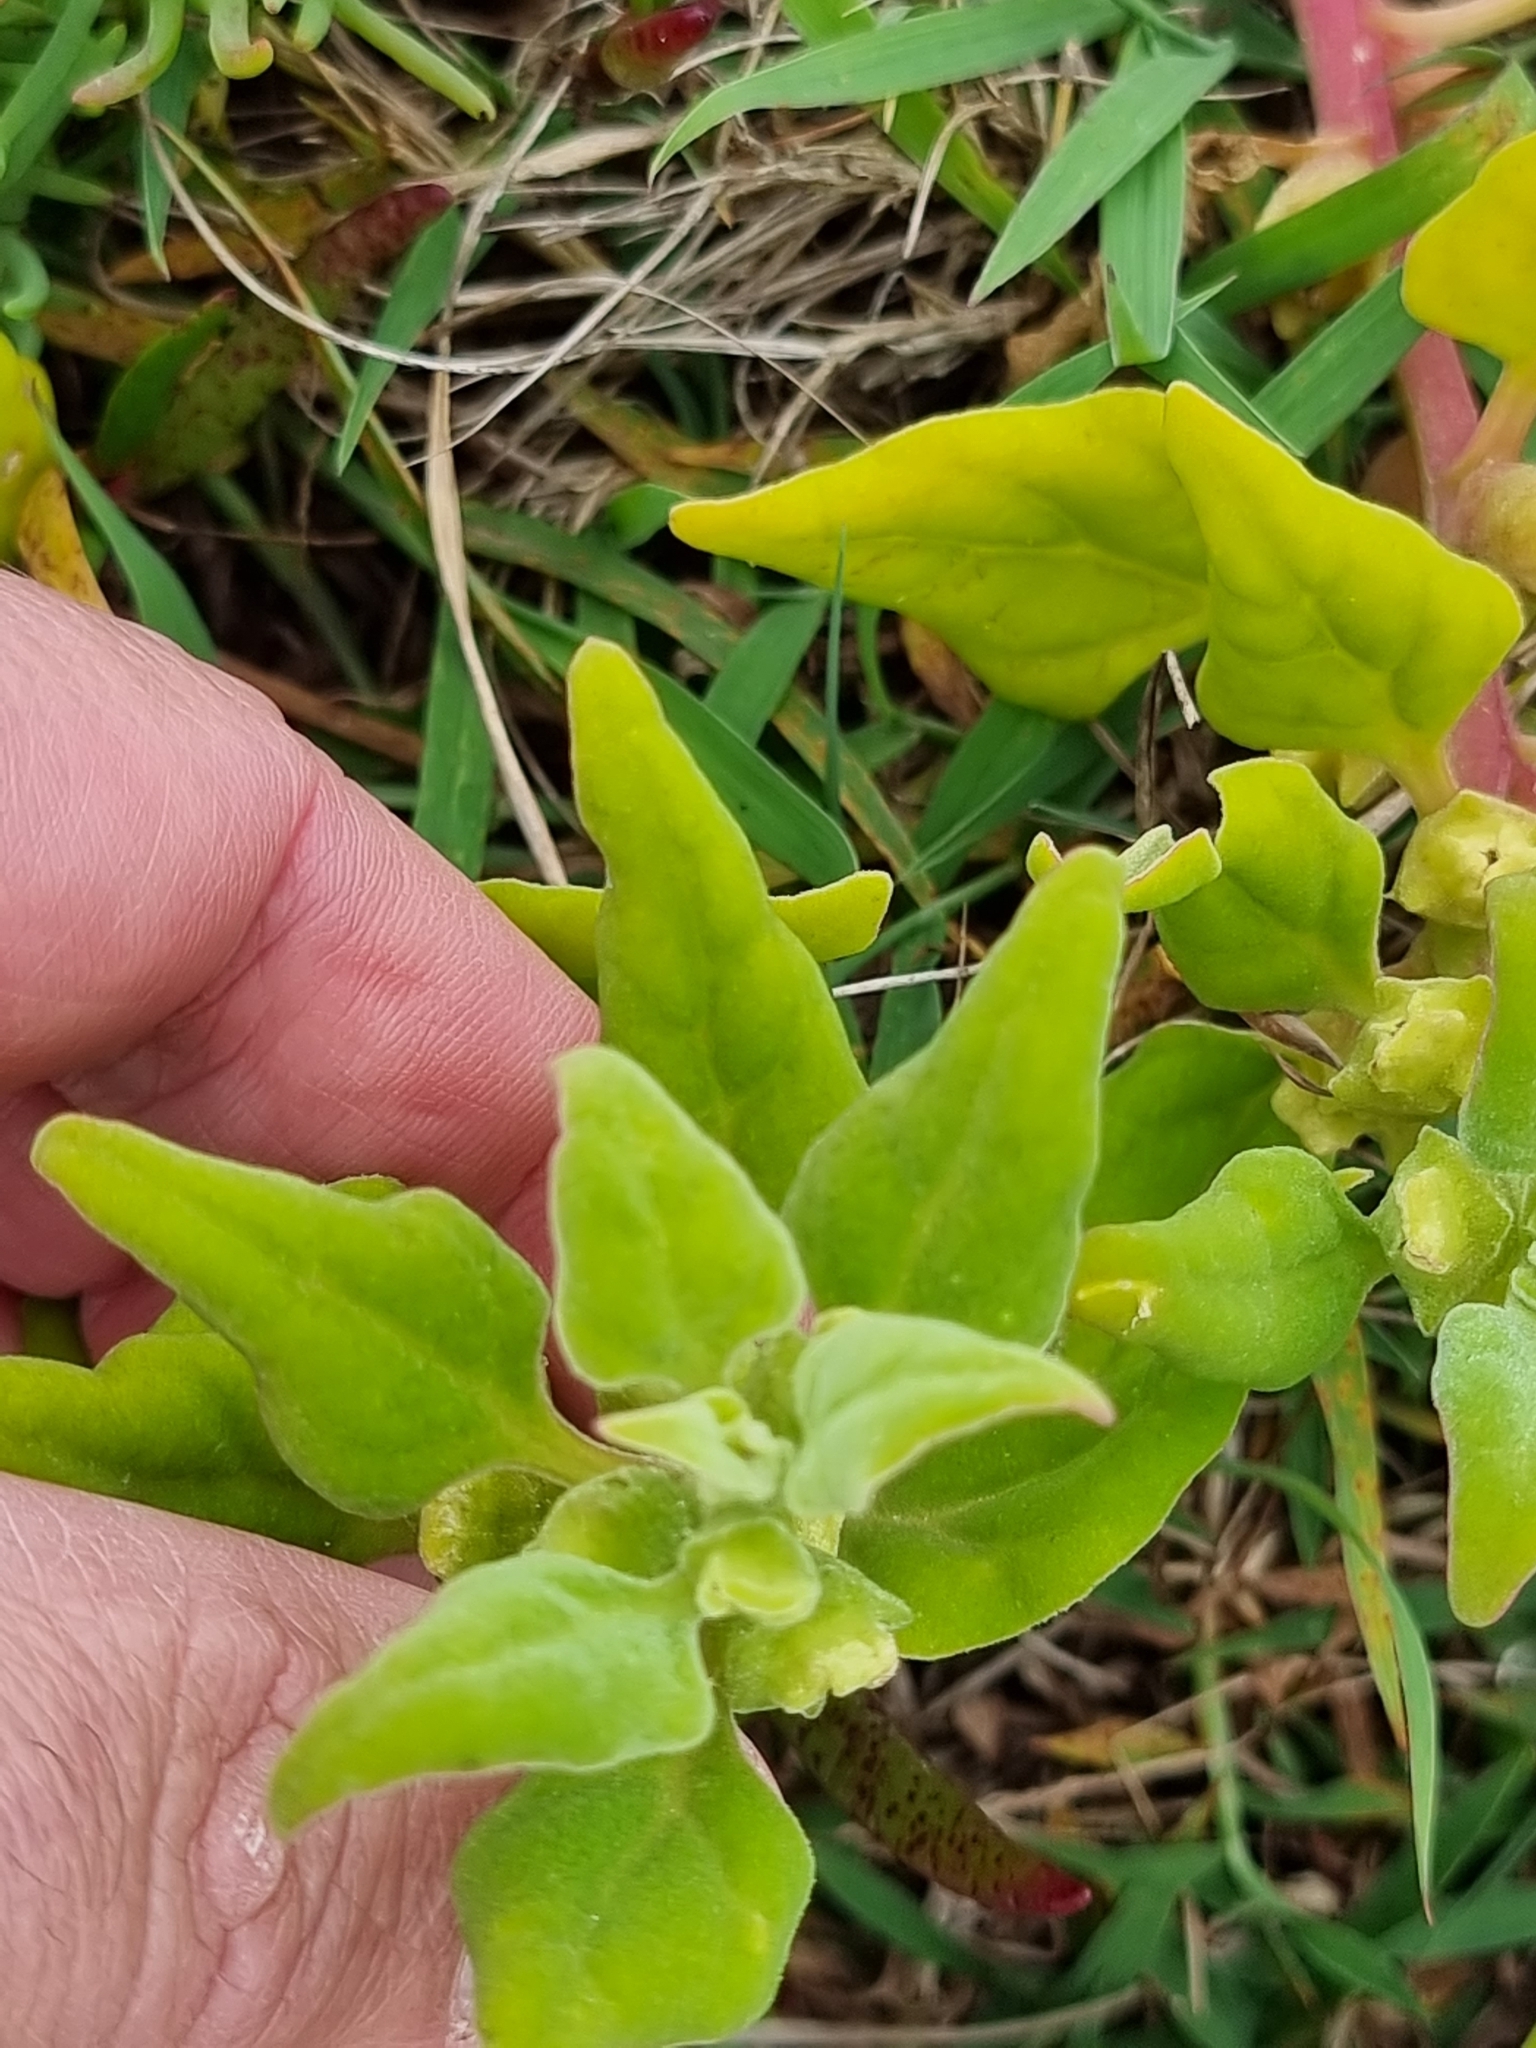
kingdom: Plantae
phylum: Tracheophyta
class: Magnoliopsida
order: Caryophyllales
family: Aizoaceae
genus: Tetragonia
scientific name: Tetragonia tetragonoides
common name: New zealand-spinach
